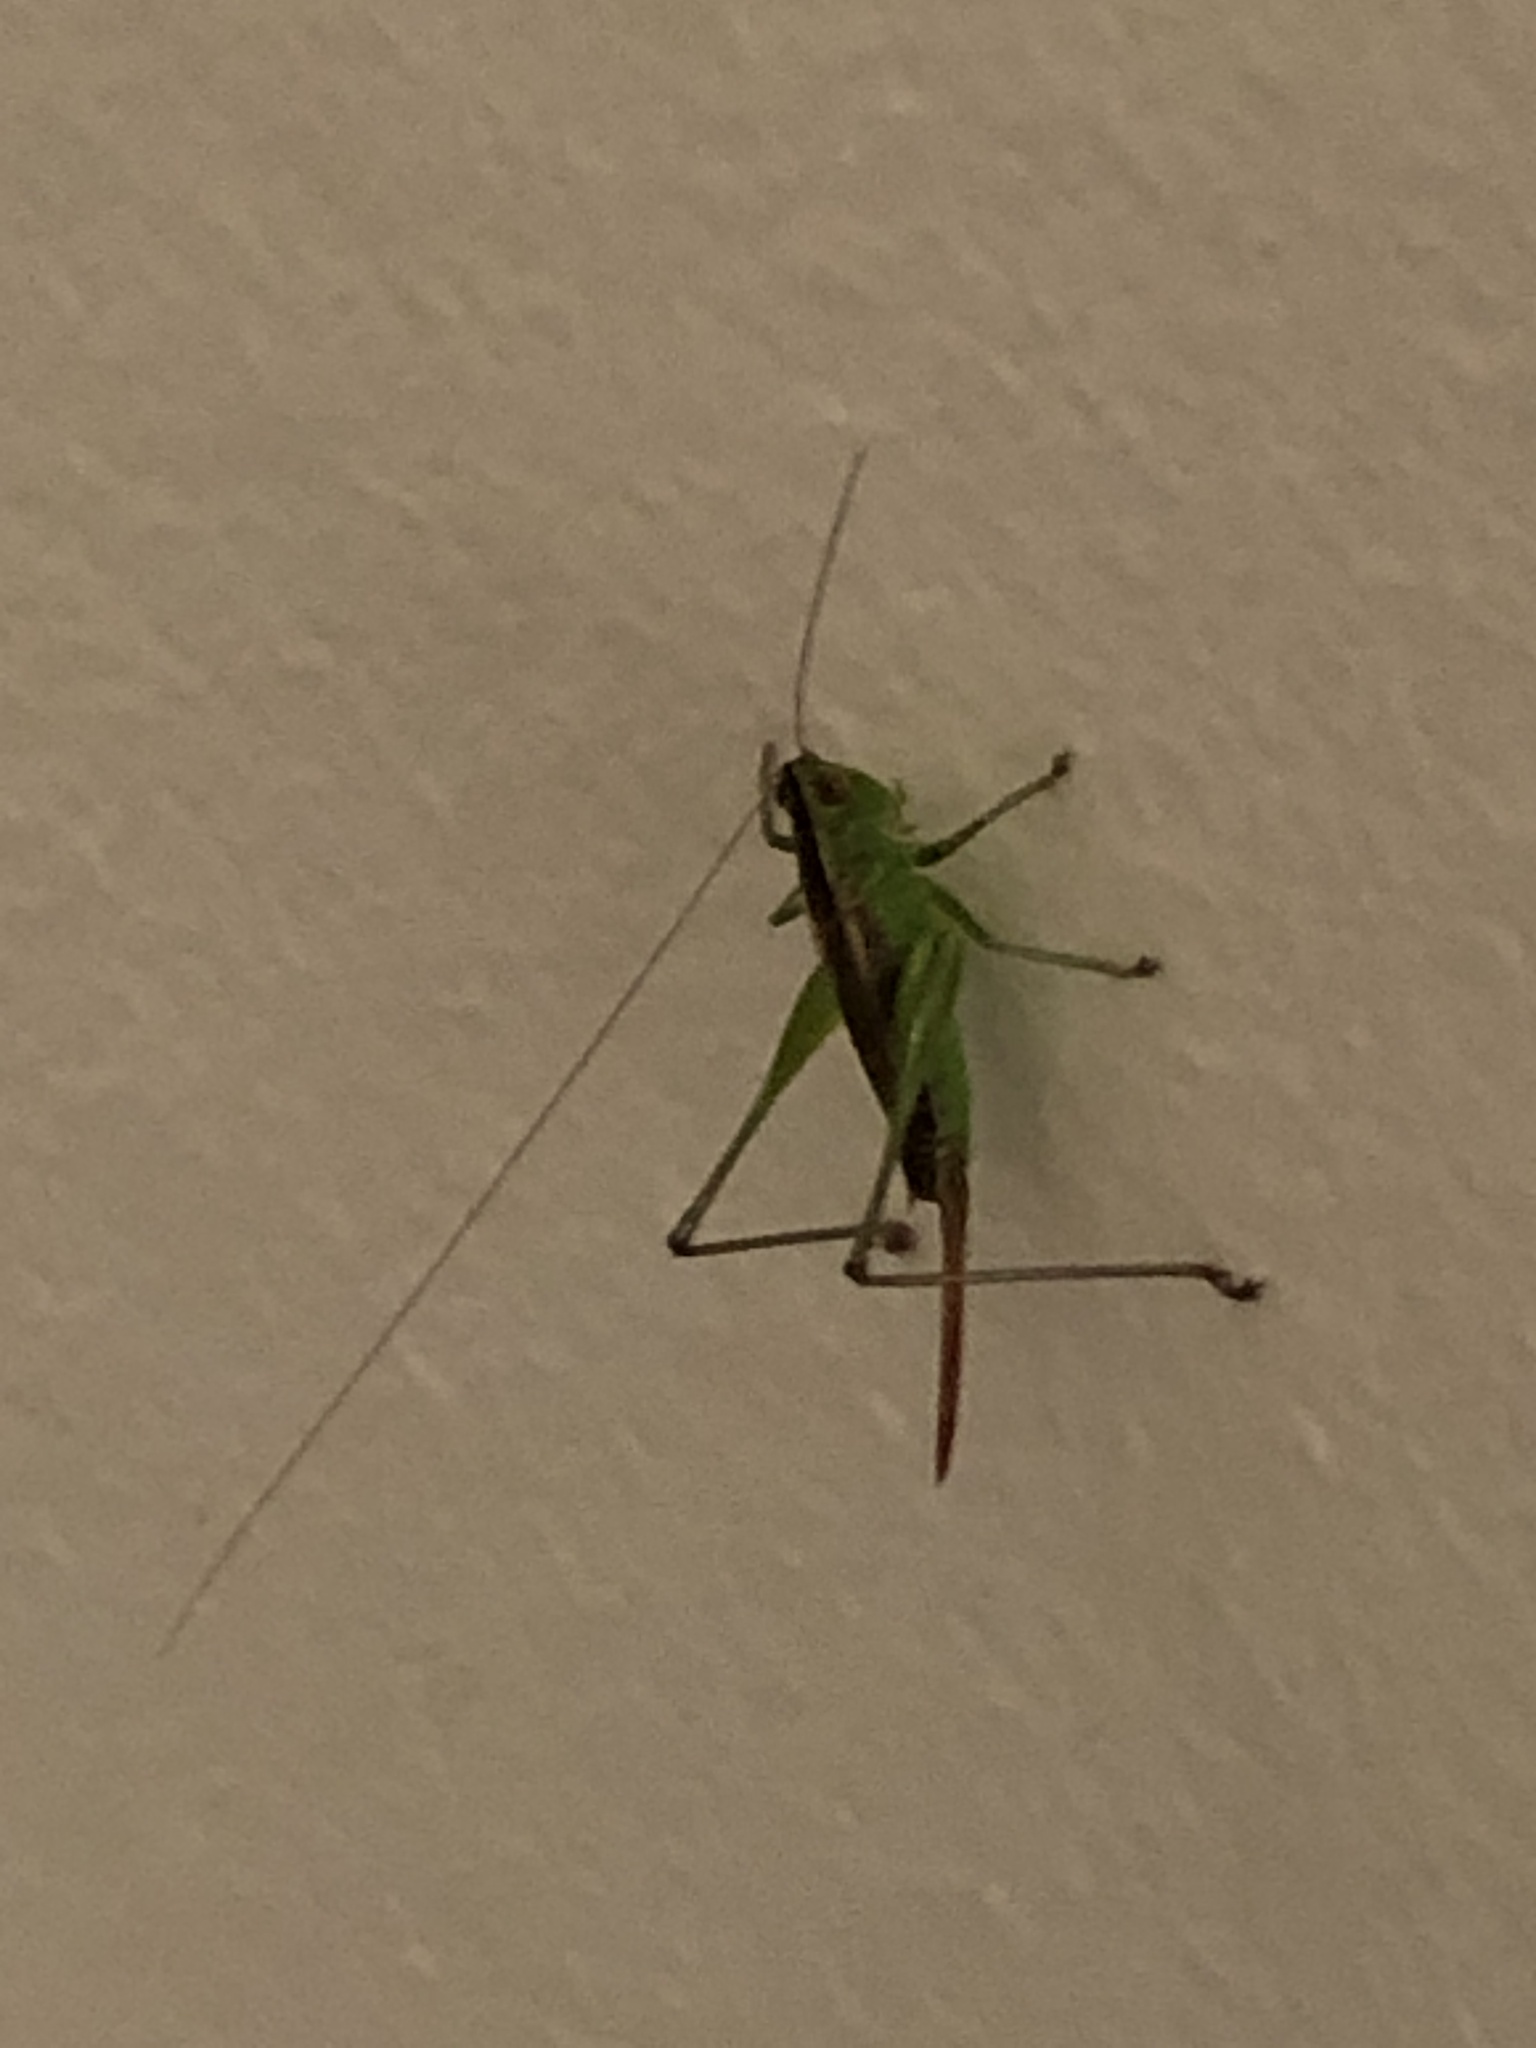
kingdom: Animalia
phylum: Arthropoda
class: Insecta
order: Orthoptera
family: Tettigoniidae
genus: Conocephalus
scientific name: Conocephalus brevipennis
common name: Short-winged meadow katydid
